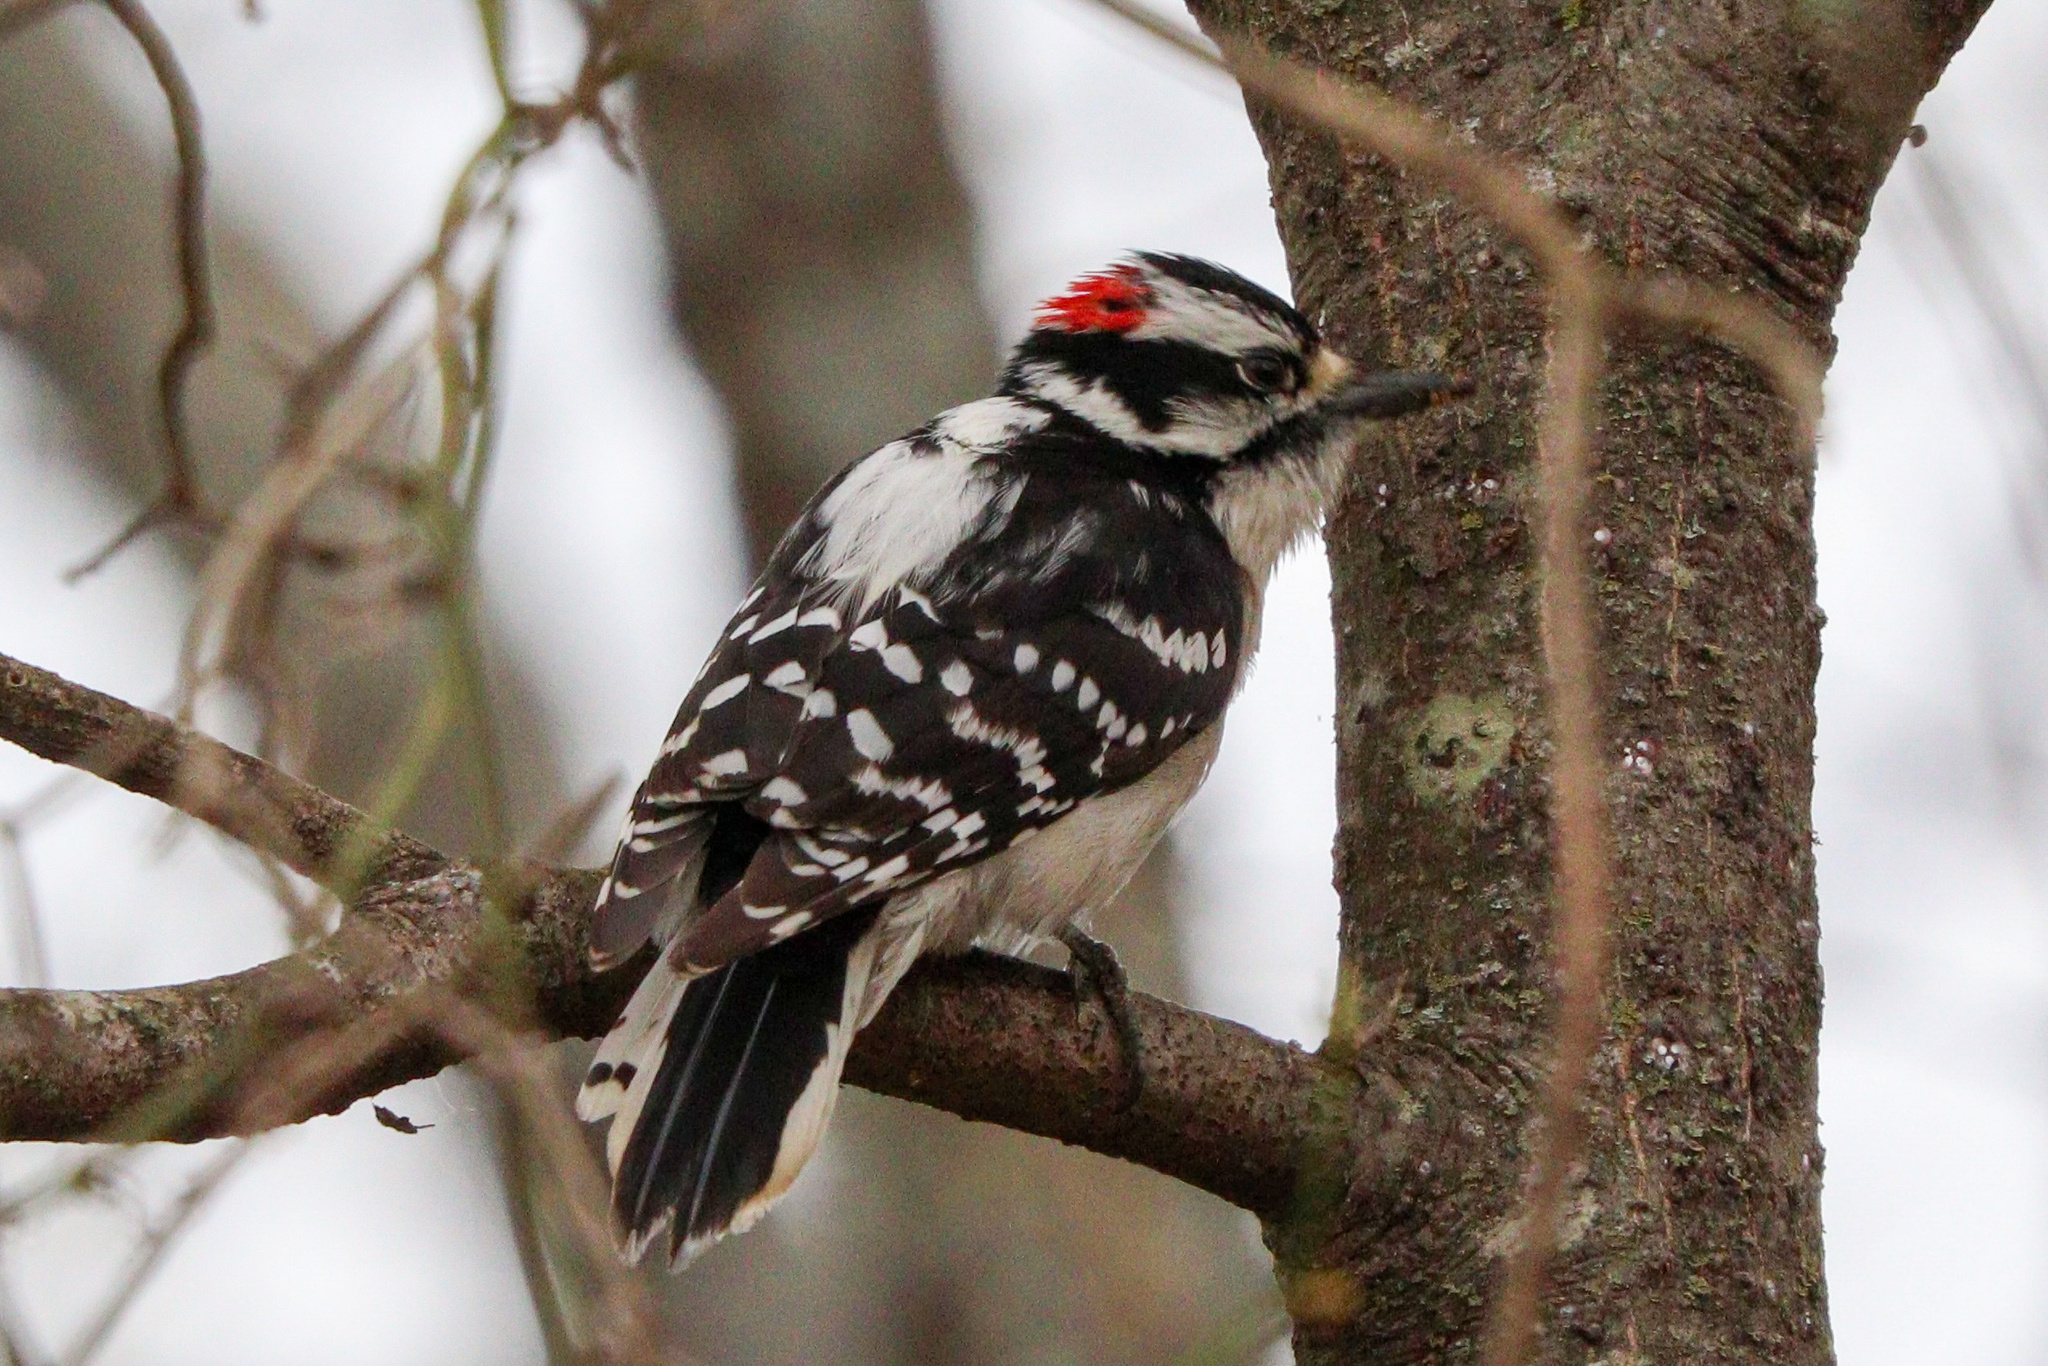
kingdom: Animalia
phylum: Chordata
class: Aves
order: Piciformes
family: Picidae
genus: Dryobates
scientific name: Dryobates pubescens
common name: Downy woodpecker
